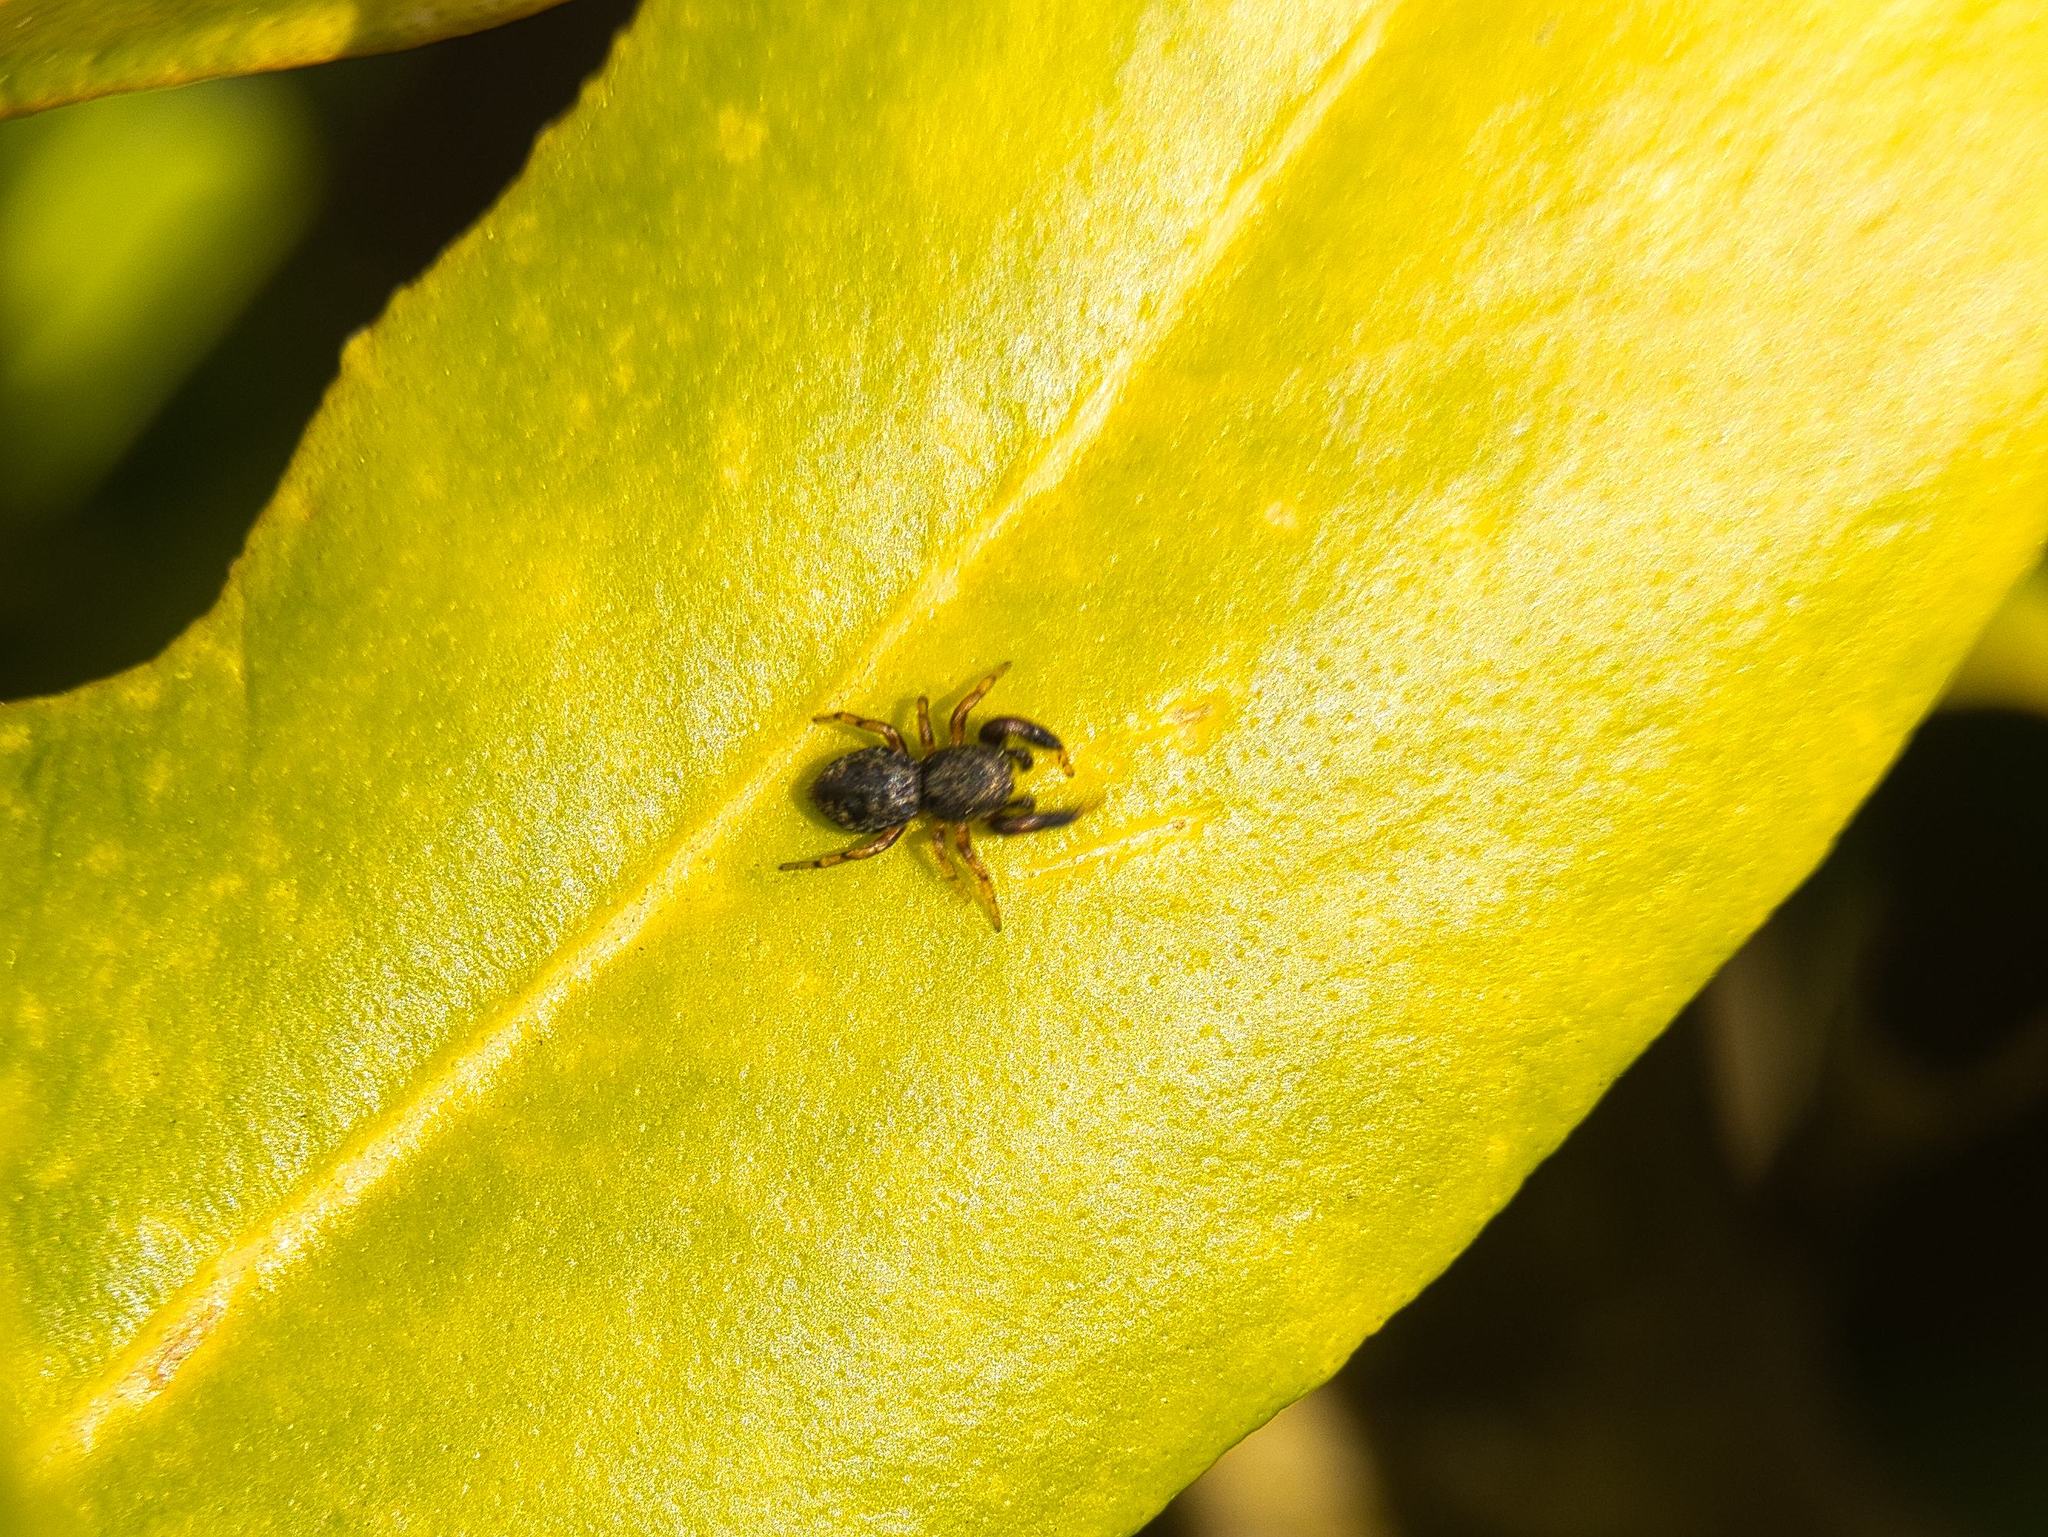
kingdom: Animalia
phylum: Arthropoda
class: Arachnida
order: Araneae
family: Salticidae
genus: Ballus
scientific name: Ballus chalybeius
